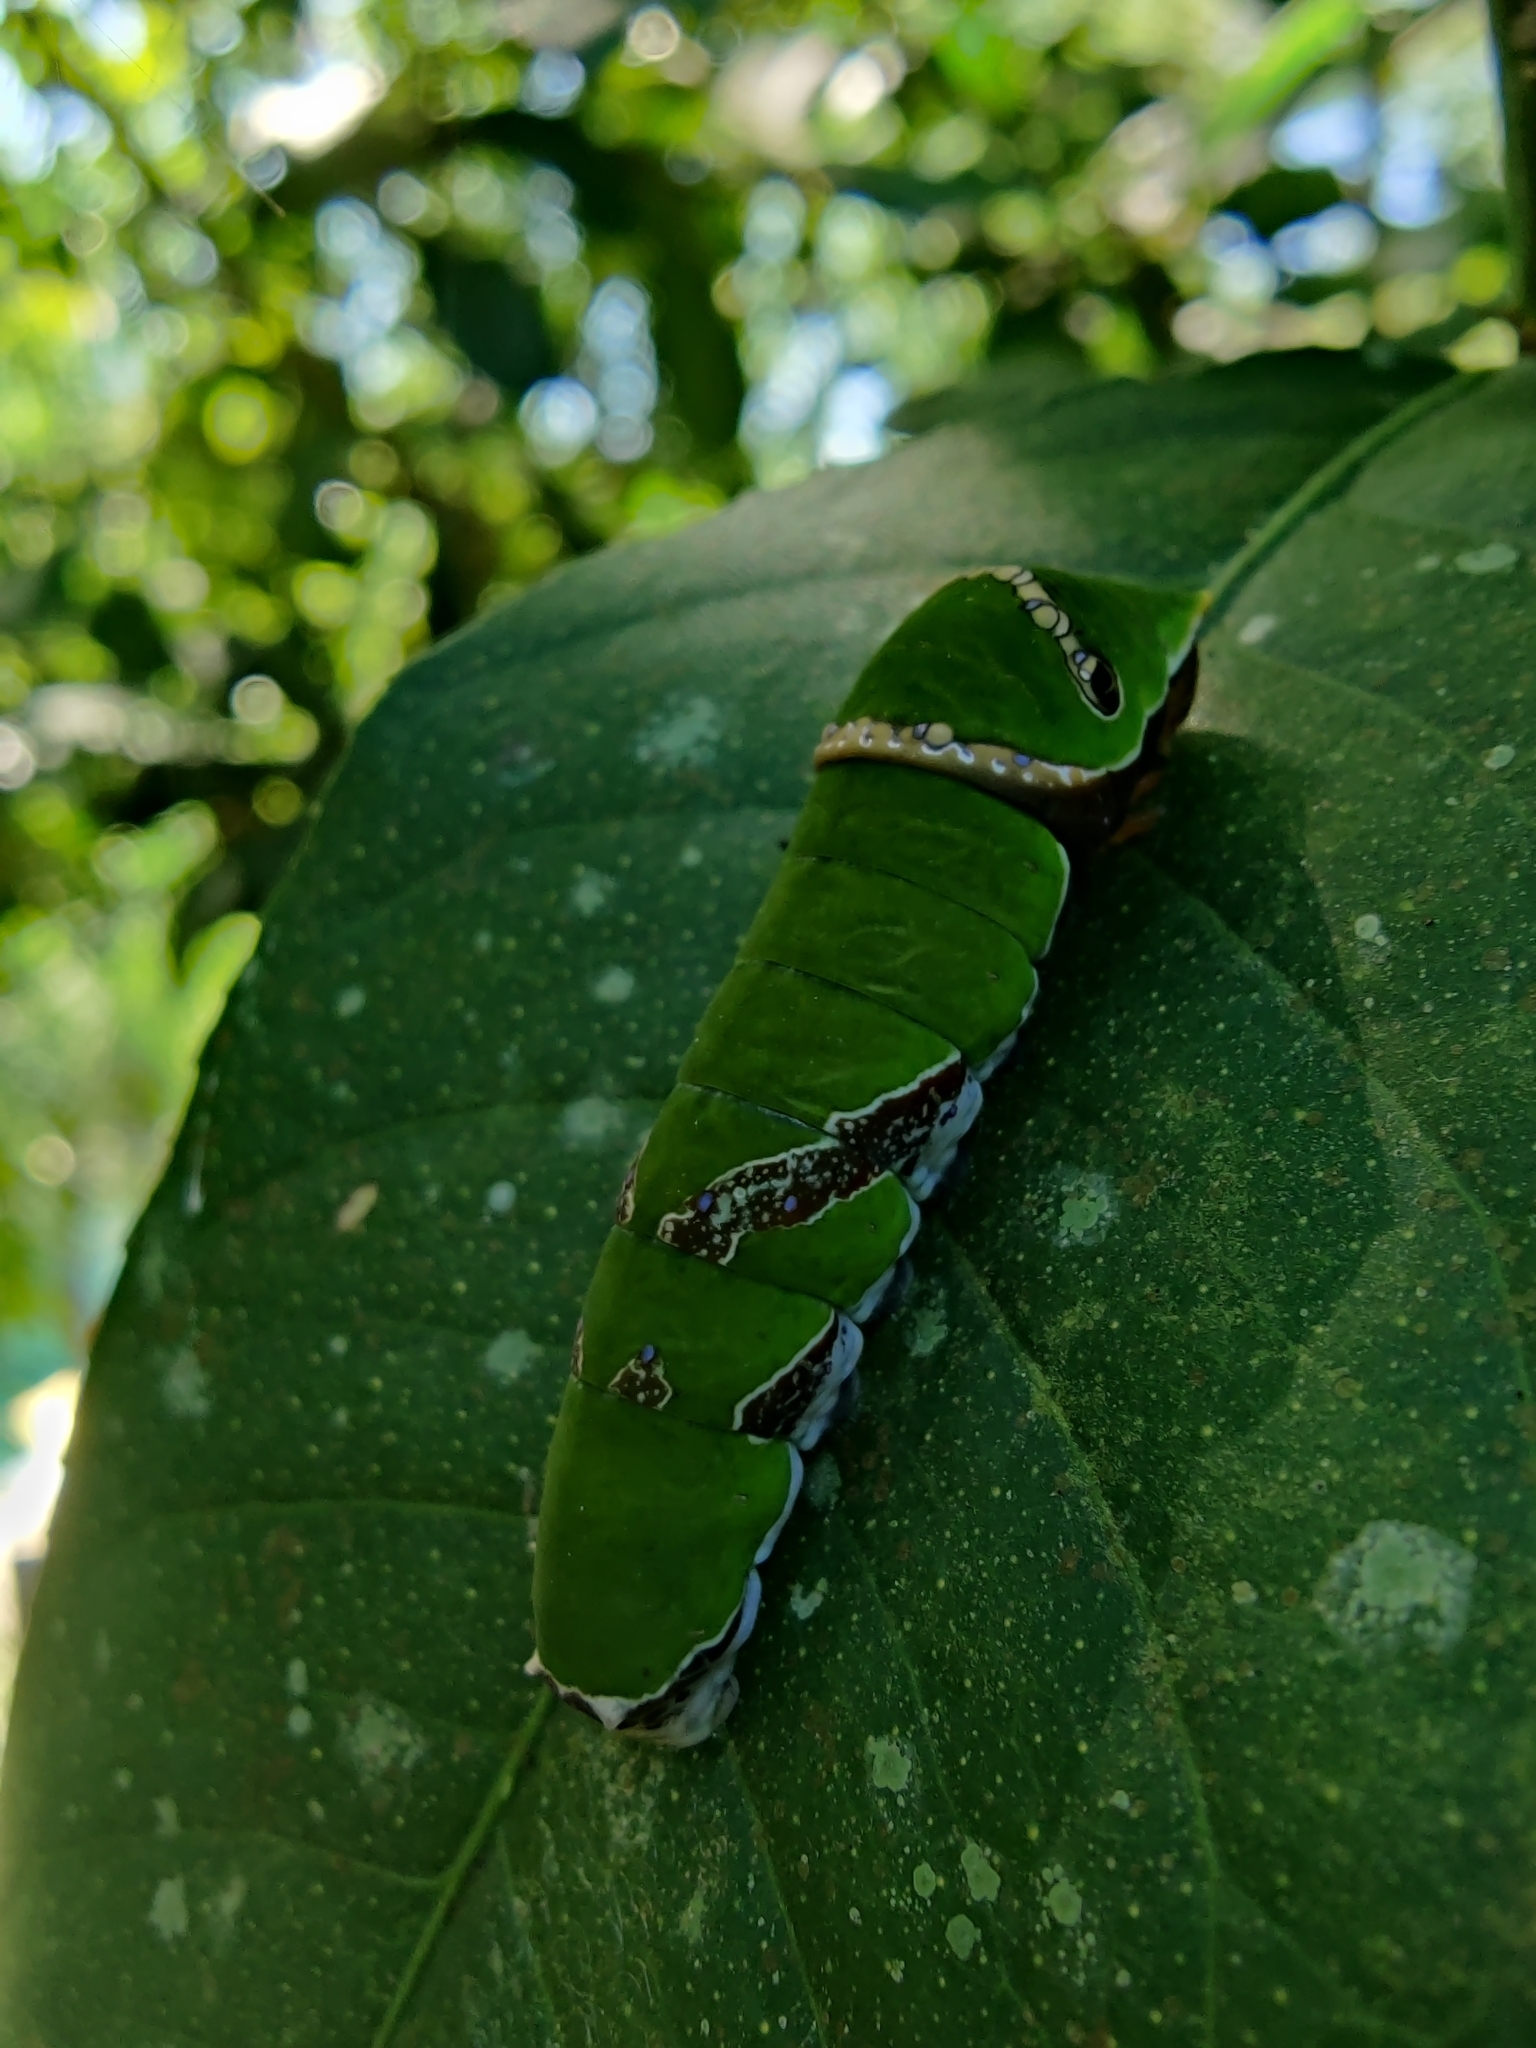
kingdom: Animalia
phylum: Arthropoda
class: Insecta
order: Lepidoptera
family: Papilionidae
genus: Papilio
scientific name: Papilio demoleus
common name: Lime butterfly
